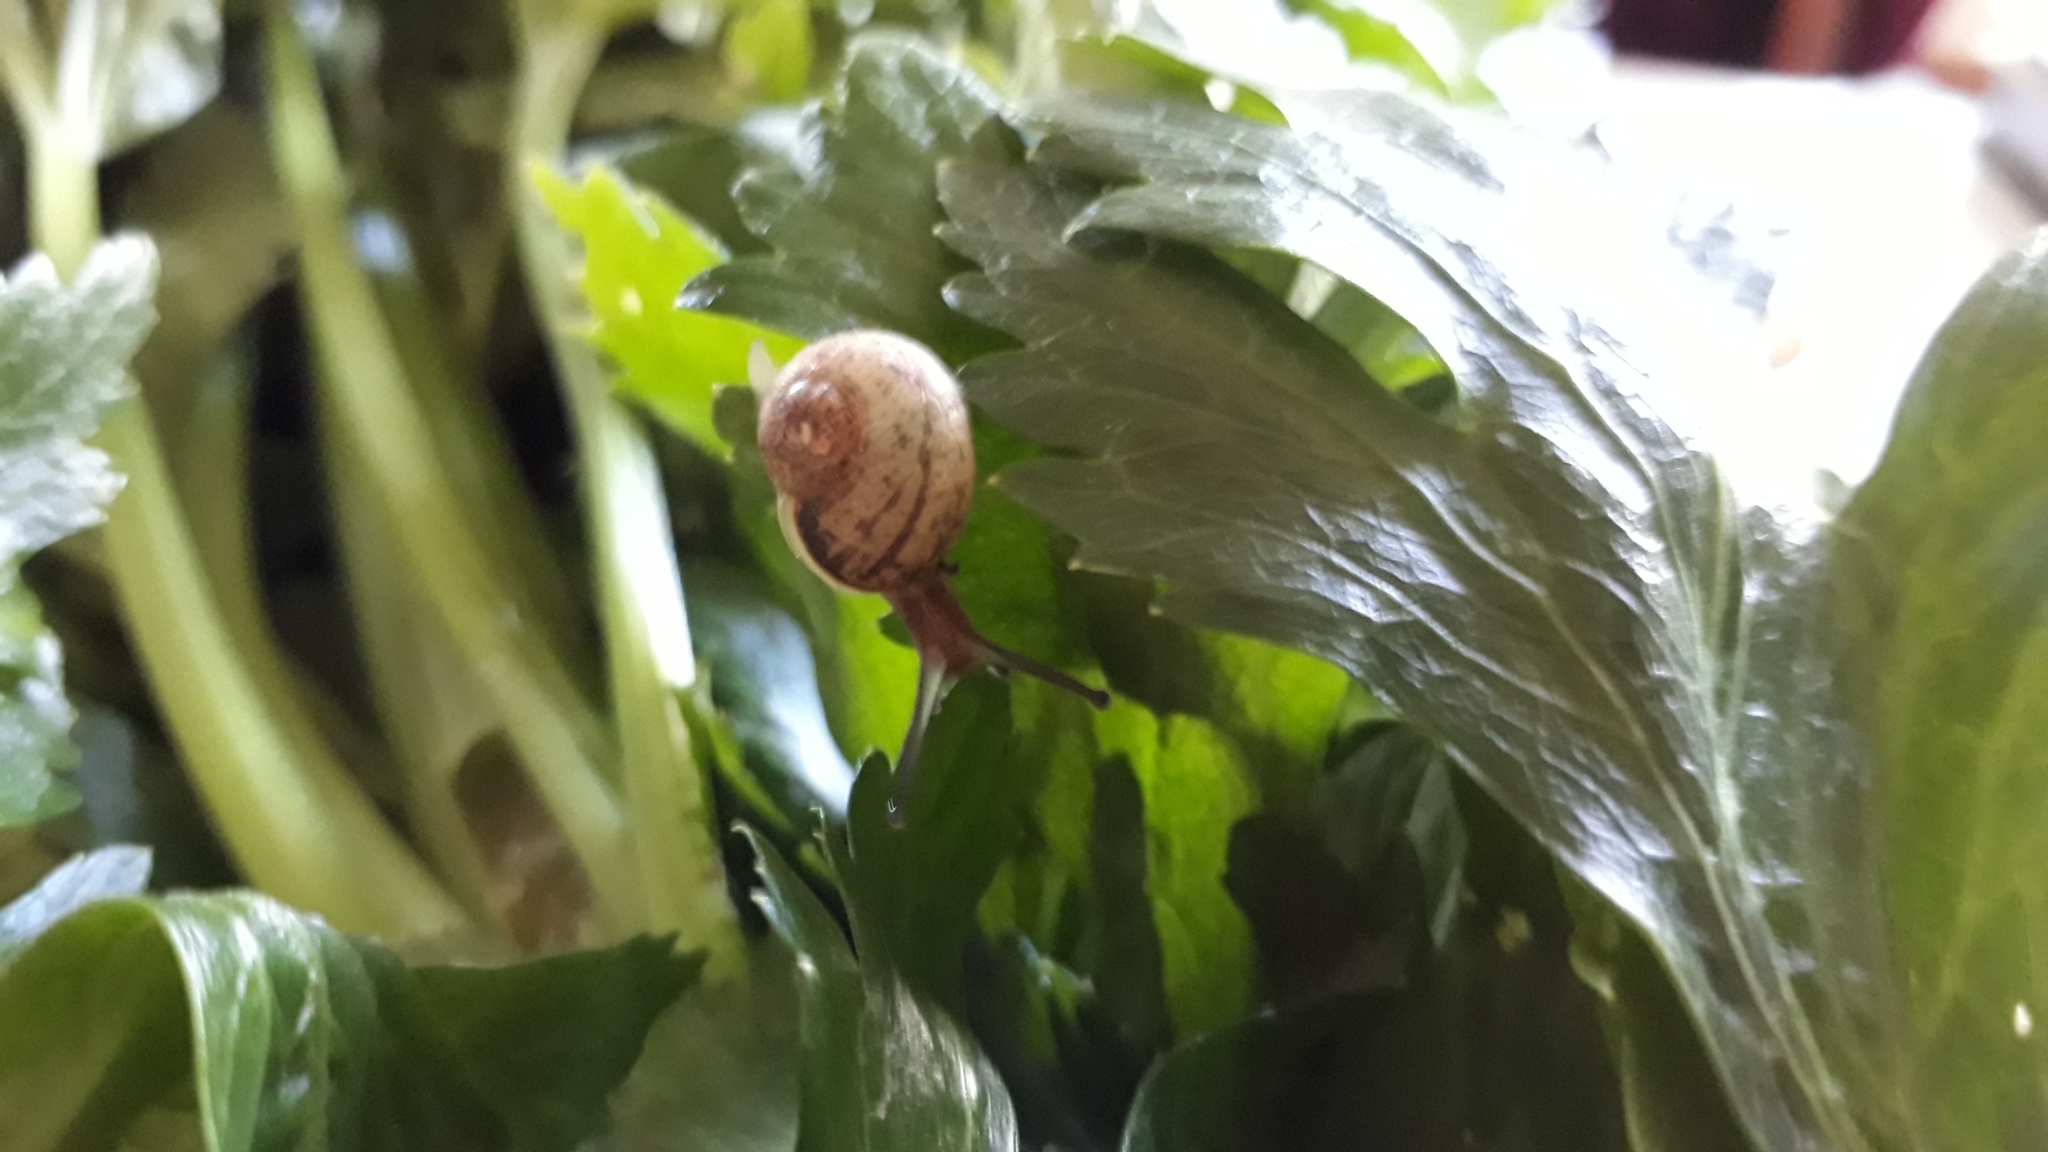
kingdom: Animalia
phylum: Mollusca
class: Gastropoda
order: Stylommatophora
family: Helicidae
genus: Cornu
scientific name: Cornu aspersum
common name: Brown garden snail
